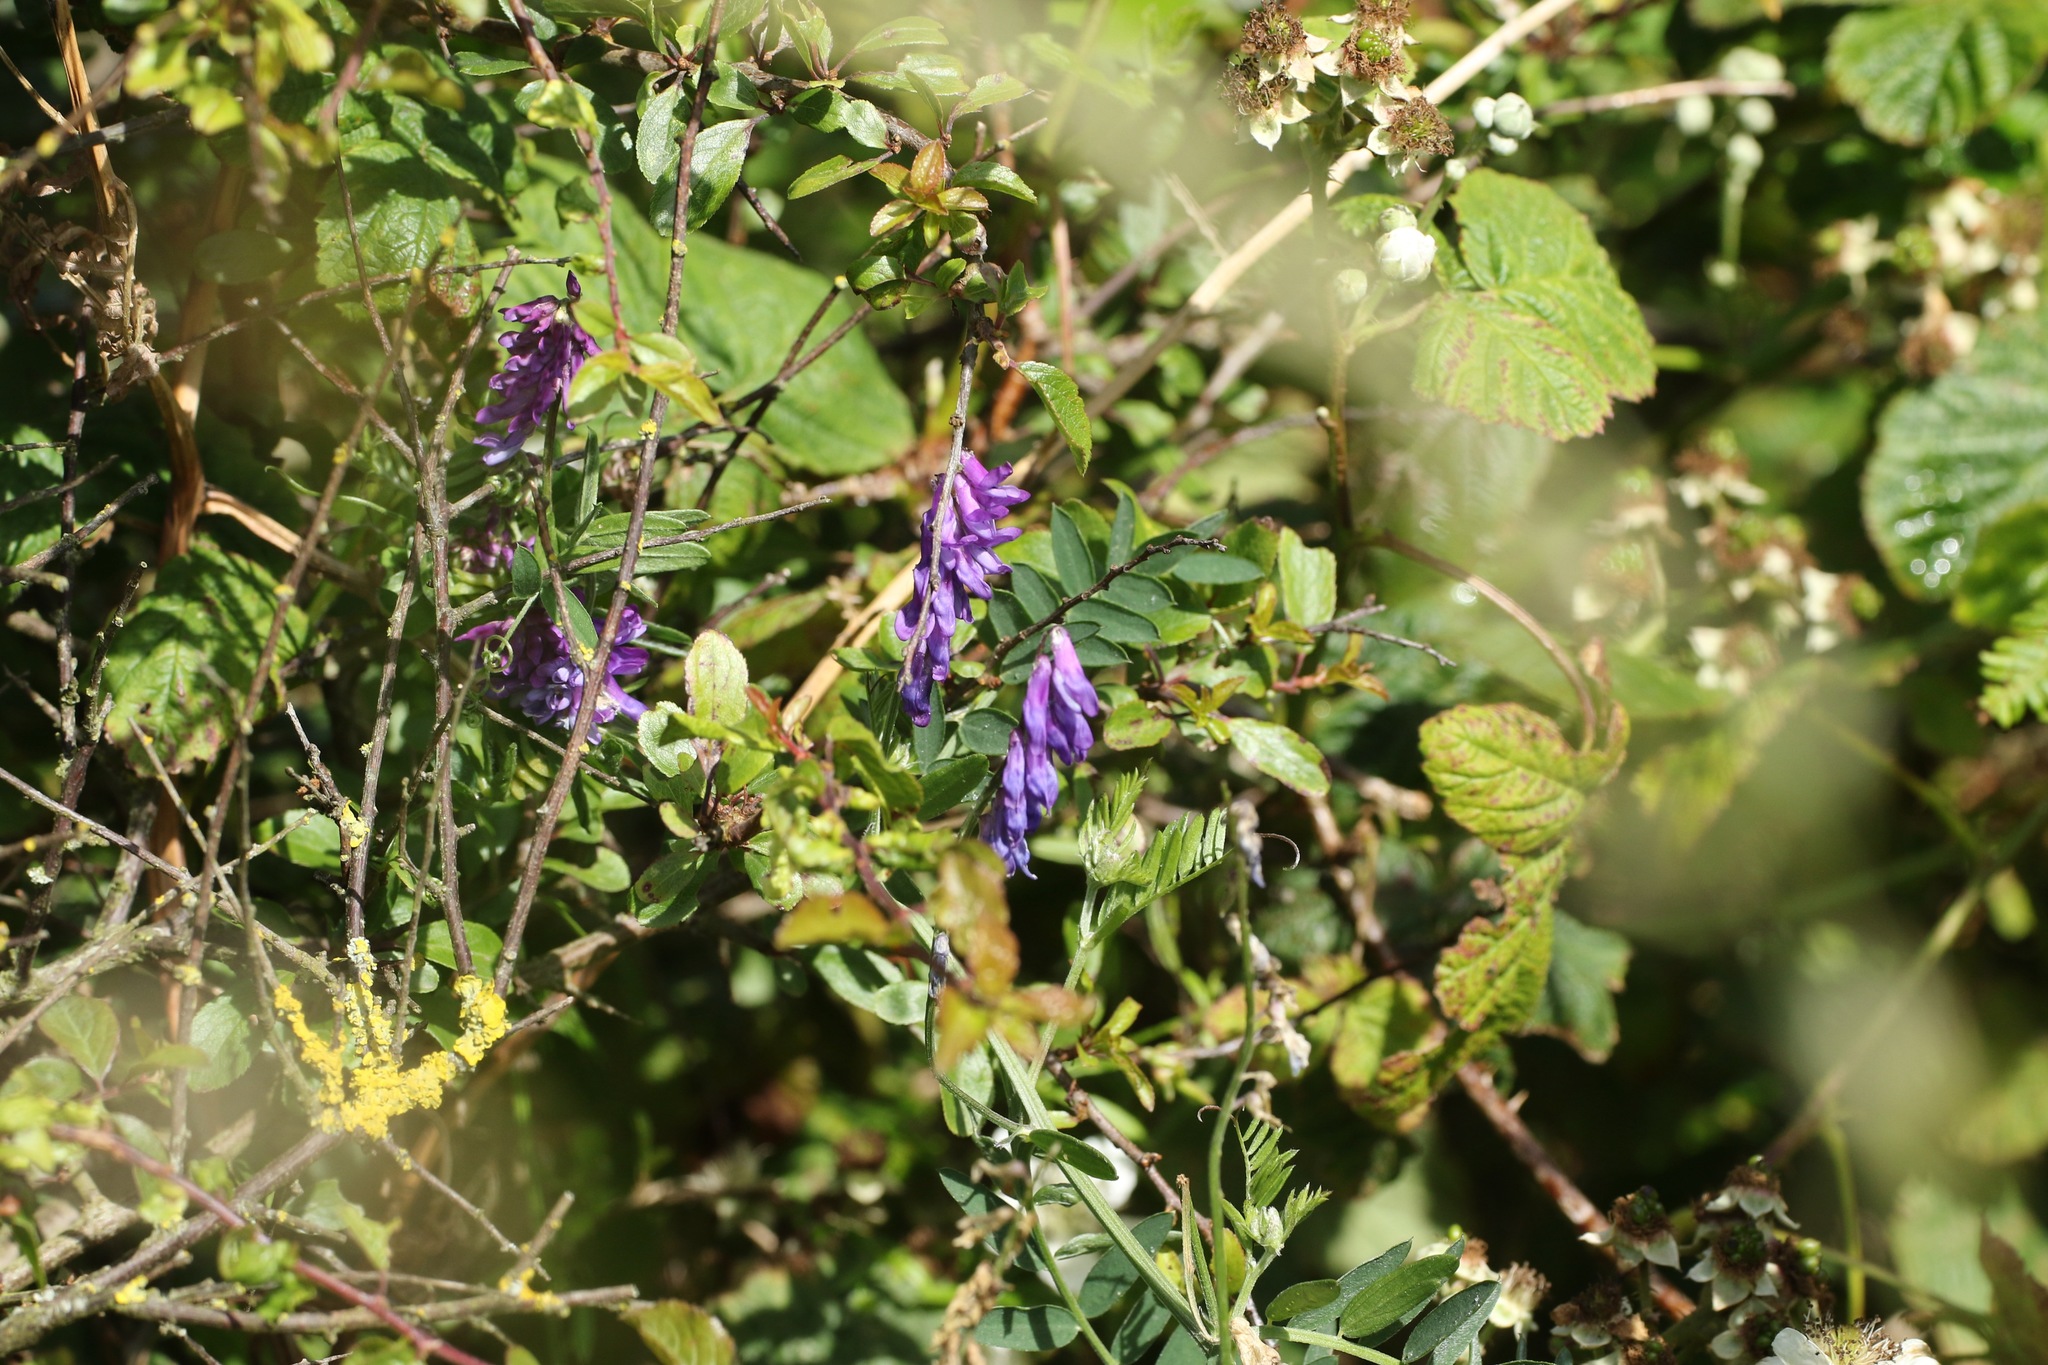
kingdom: Plantae
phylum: Tracheophyta
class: Magnoliopsida
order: Fabales
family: Fabaceae
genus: Vicia
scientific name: Vicia cracca
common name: Bird vetch
